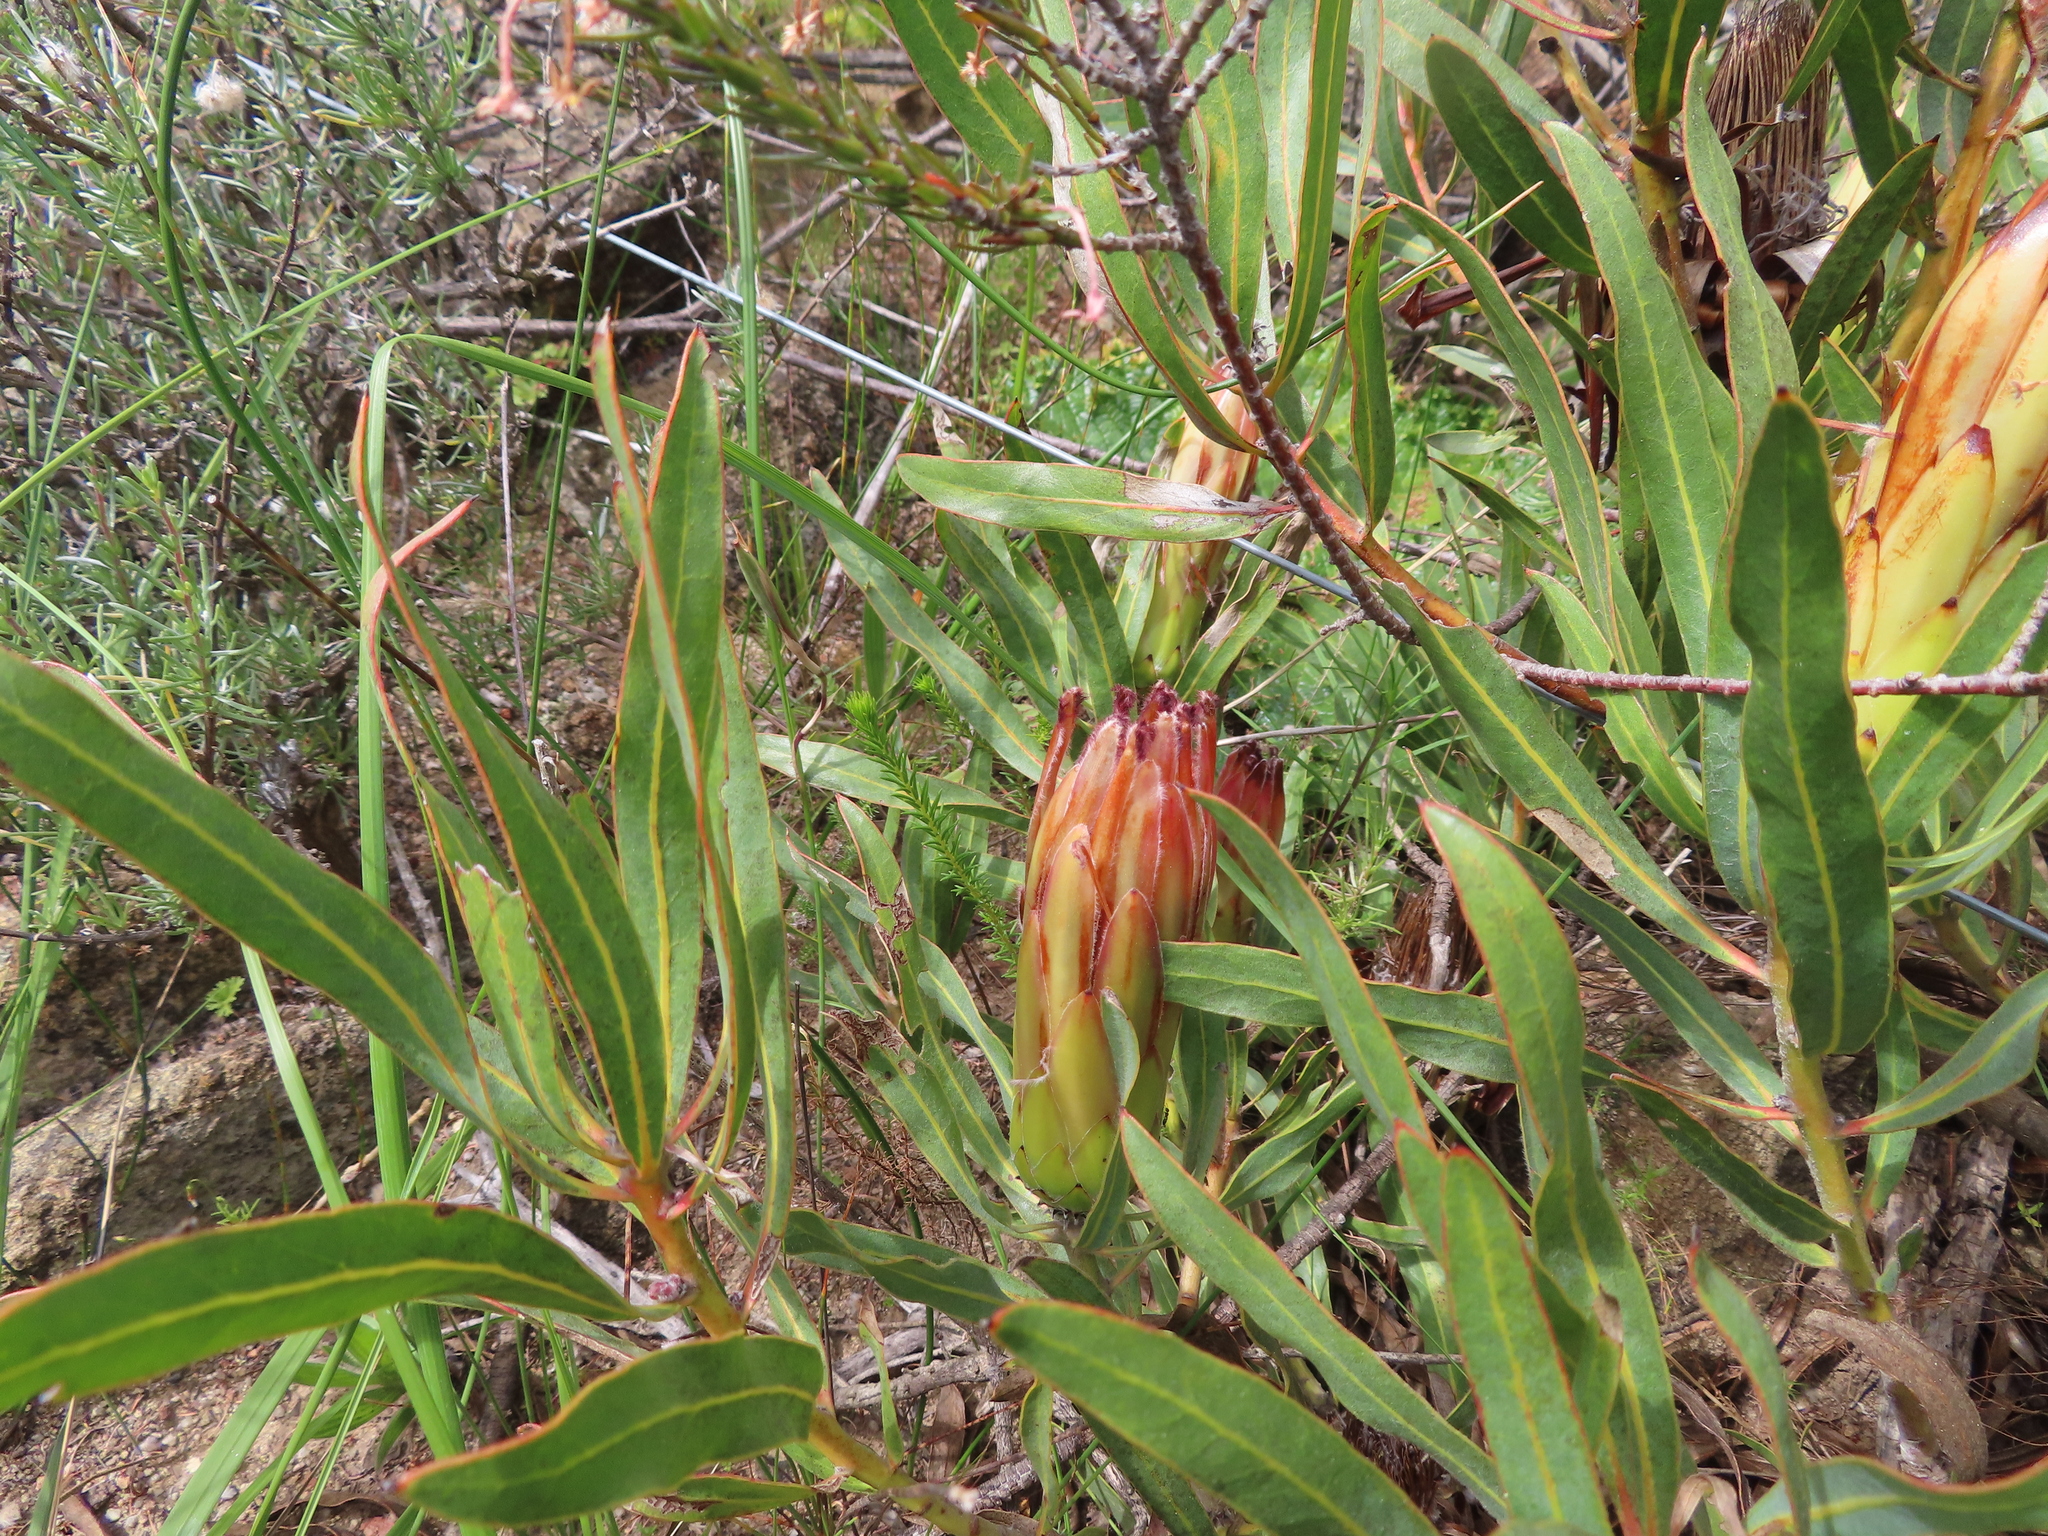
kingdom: Plantae
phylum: Tracheophyta
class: Magnoliopsida
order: Proteales
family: Proteaceae
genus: Protea
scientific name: Protea burchellii
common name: Burchell's sugarbush
